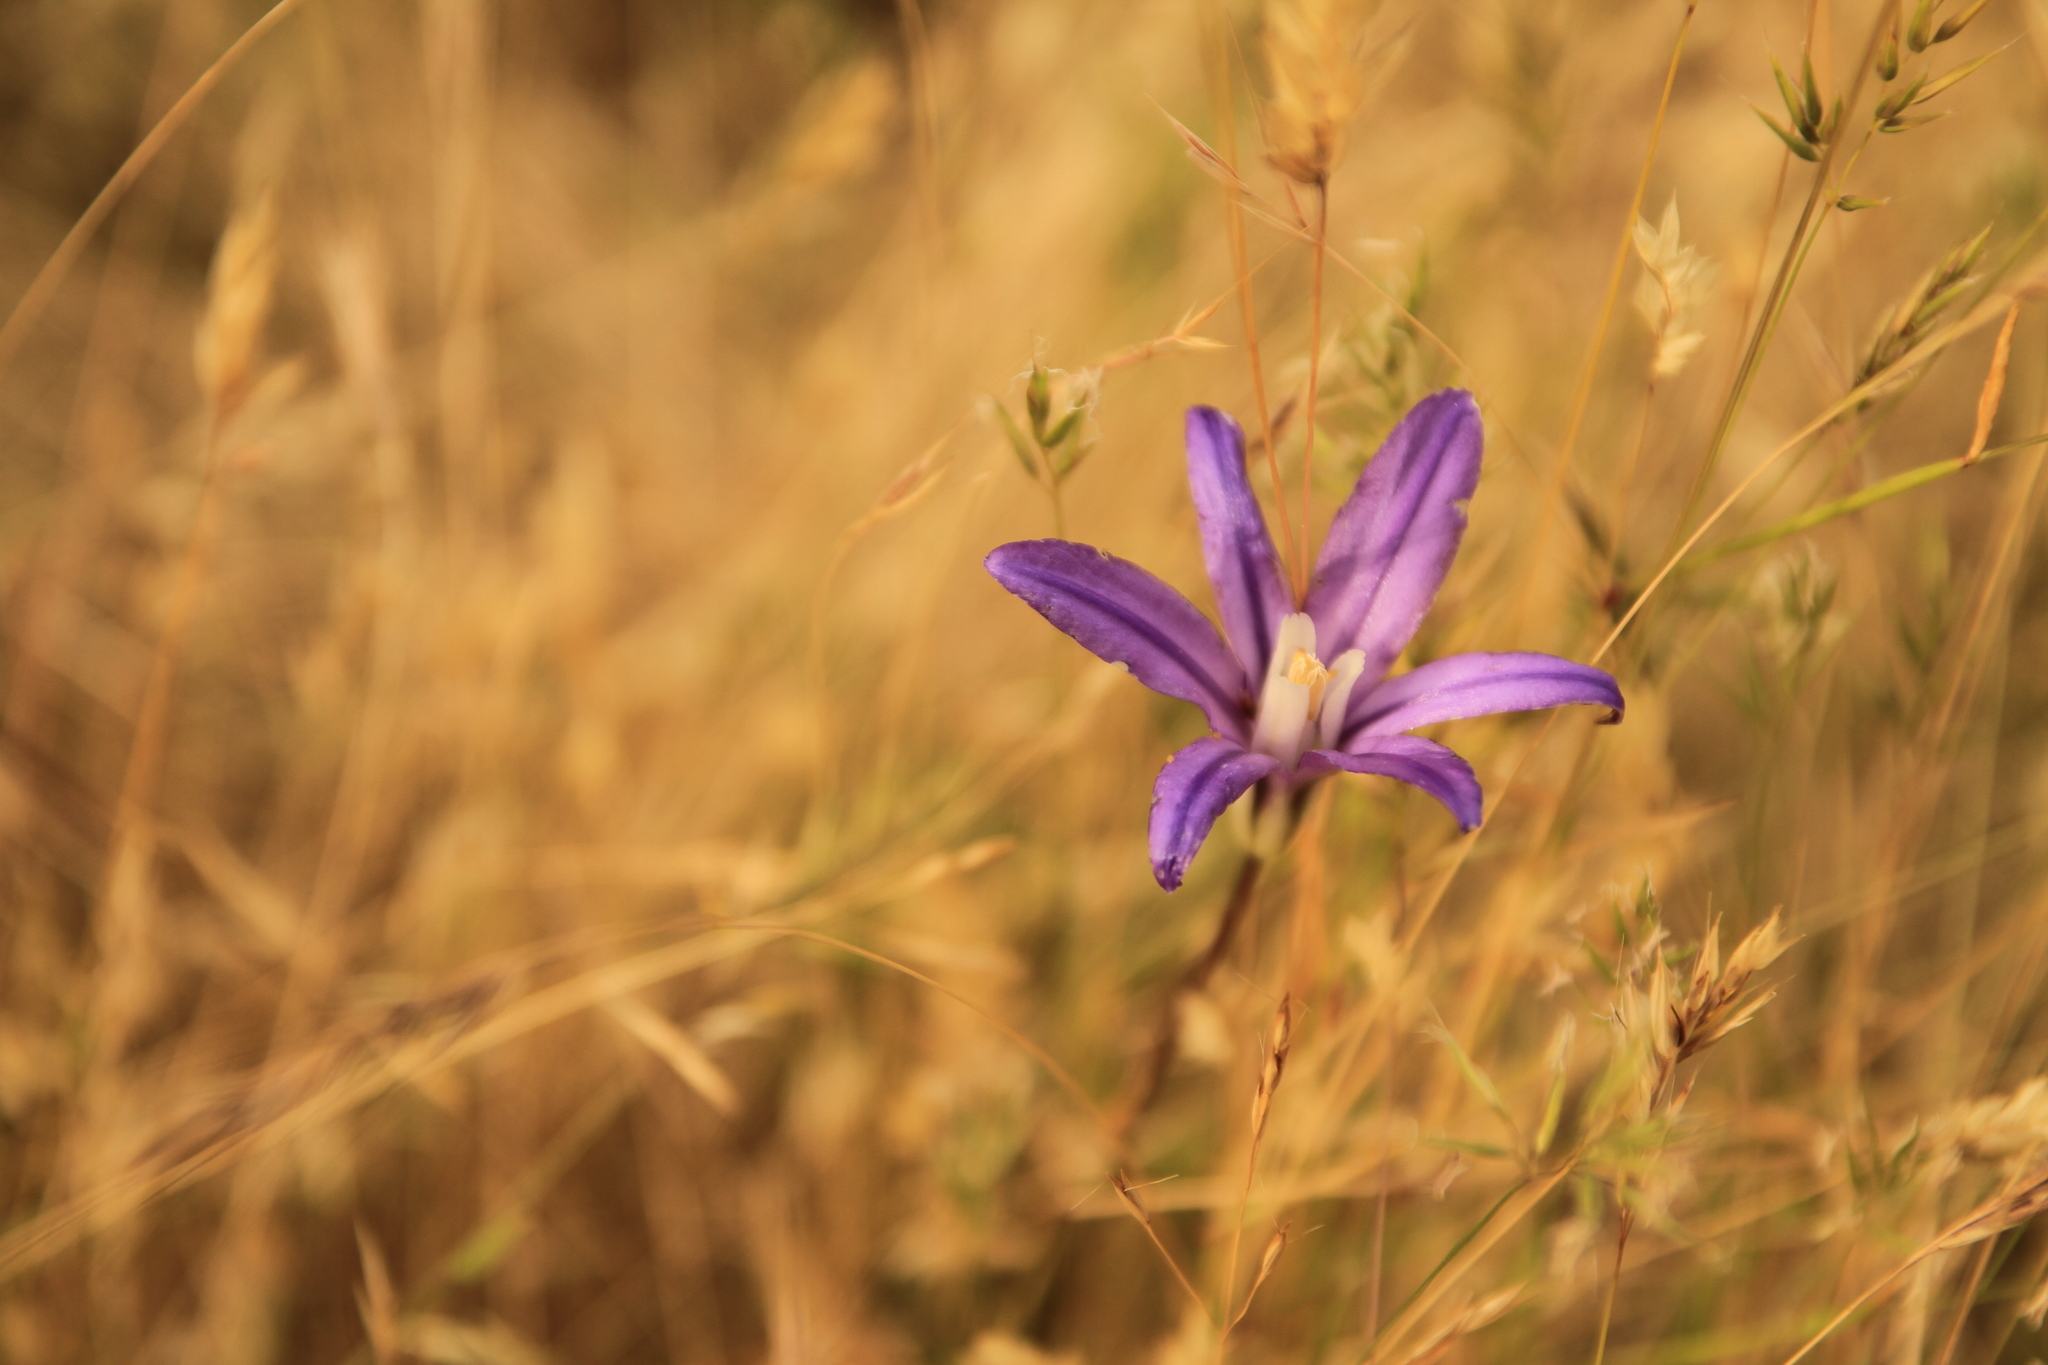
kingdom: Plantae
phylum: Tracheophyta
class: Liliopsida
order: Asparagales
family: Asparagaceae
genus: Brodiaea
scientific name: Brodiaea coronaria
